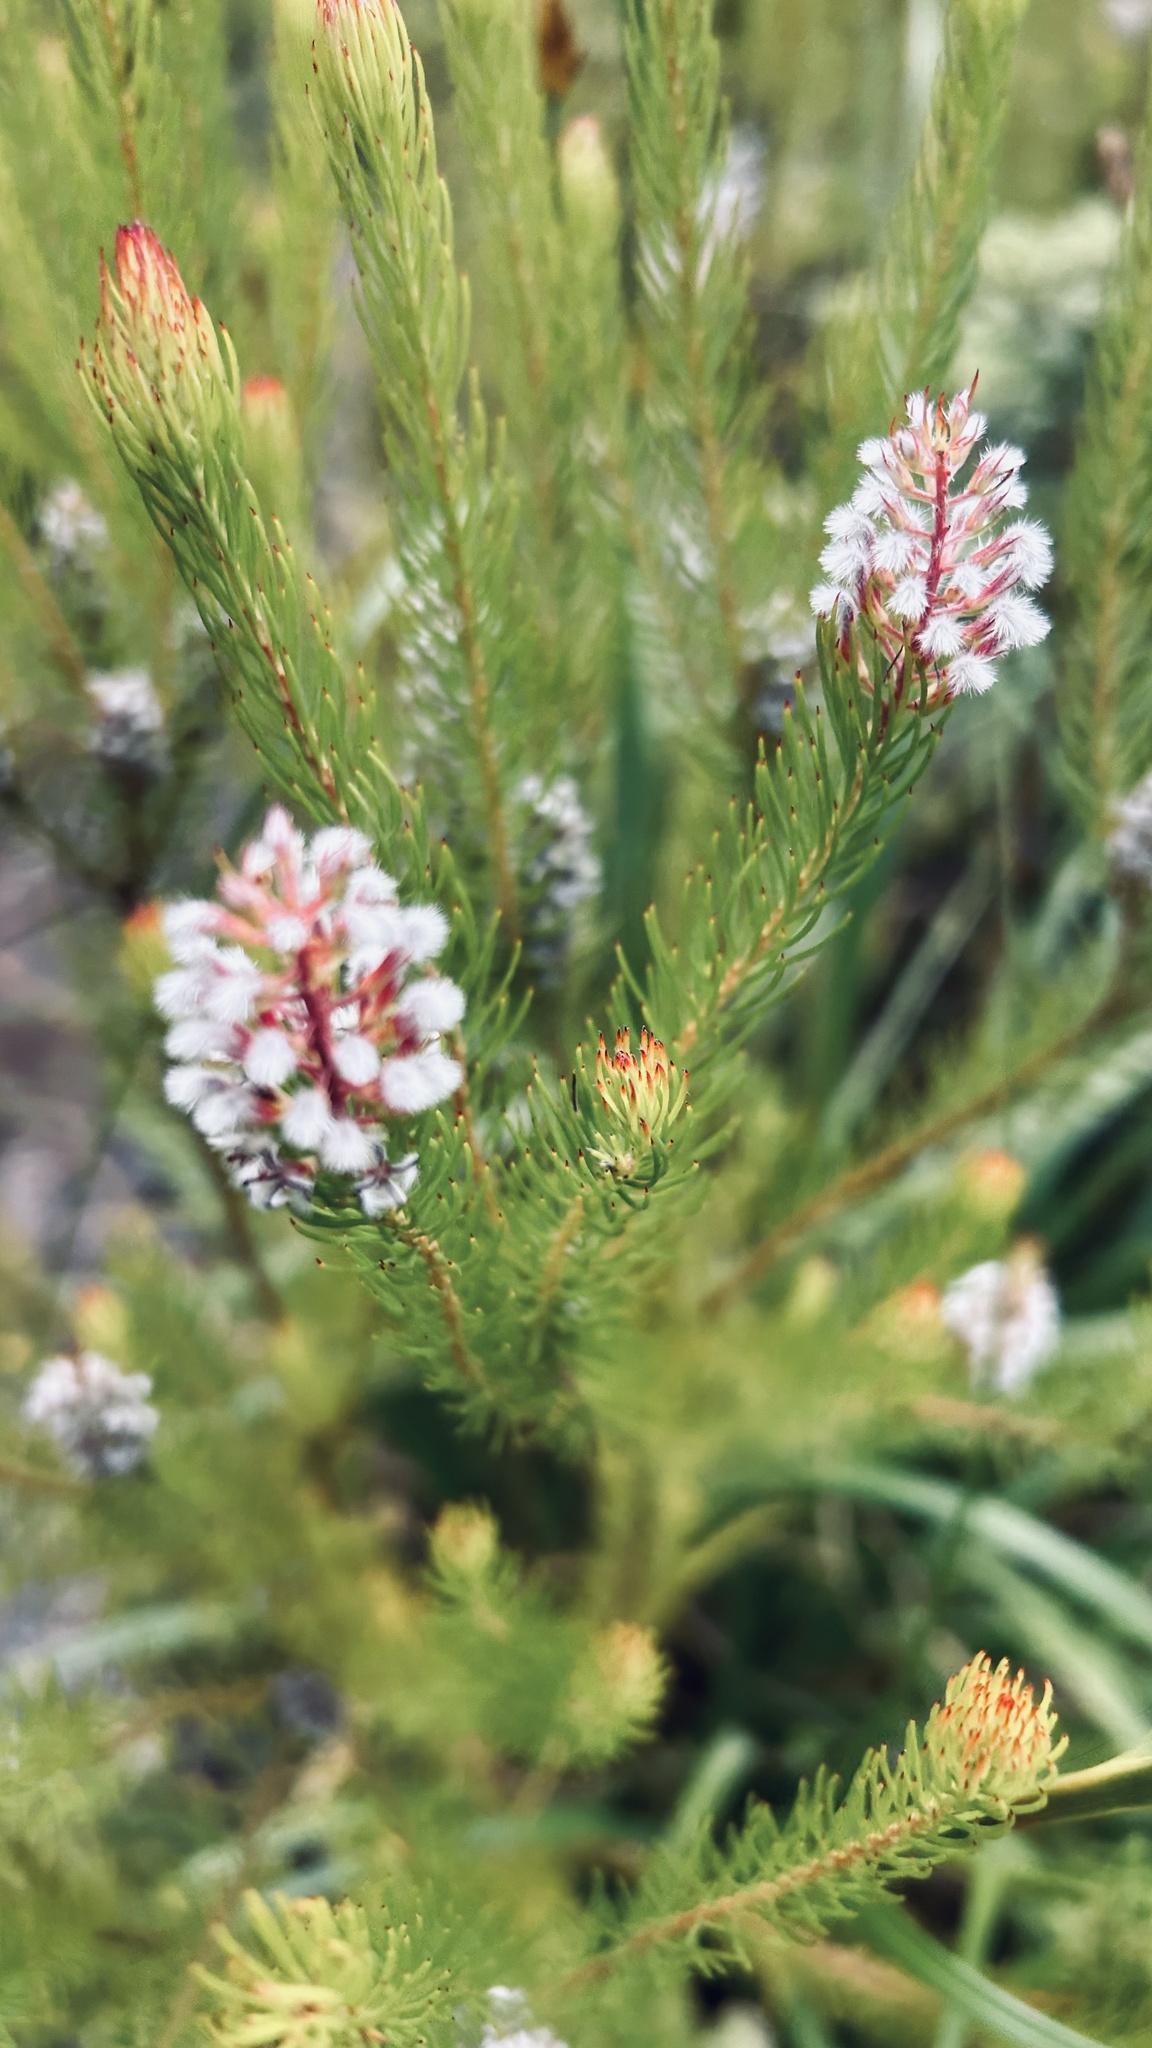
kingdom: Plantae
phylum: Tracheophyta
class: Magnoliopsida
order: Proteales
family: Proteaceae
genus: Spatalla
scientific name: Spatalla parilis
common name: Spike spoon
